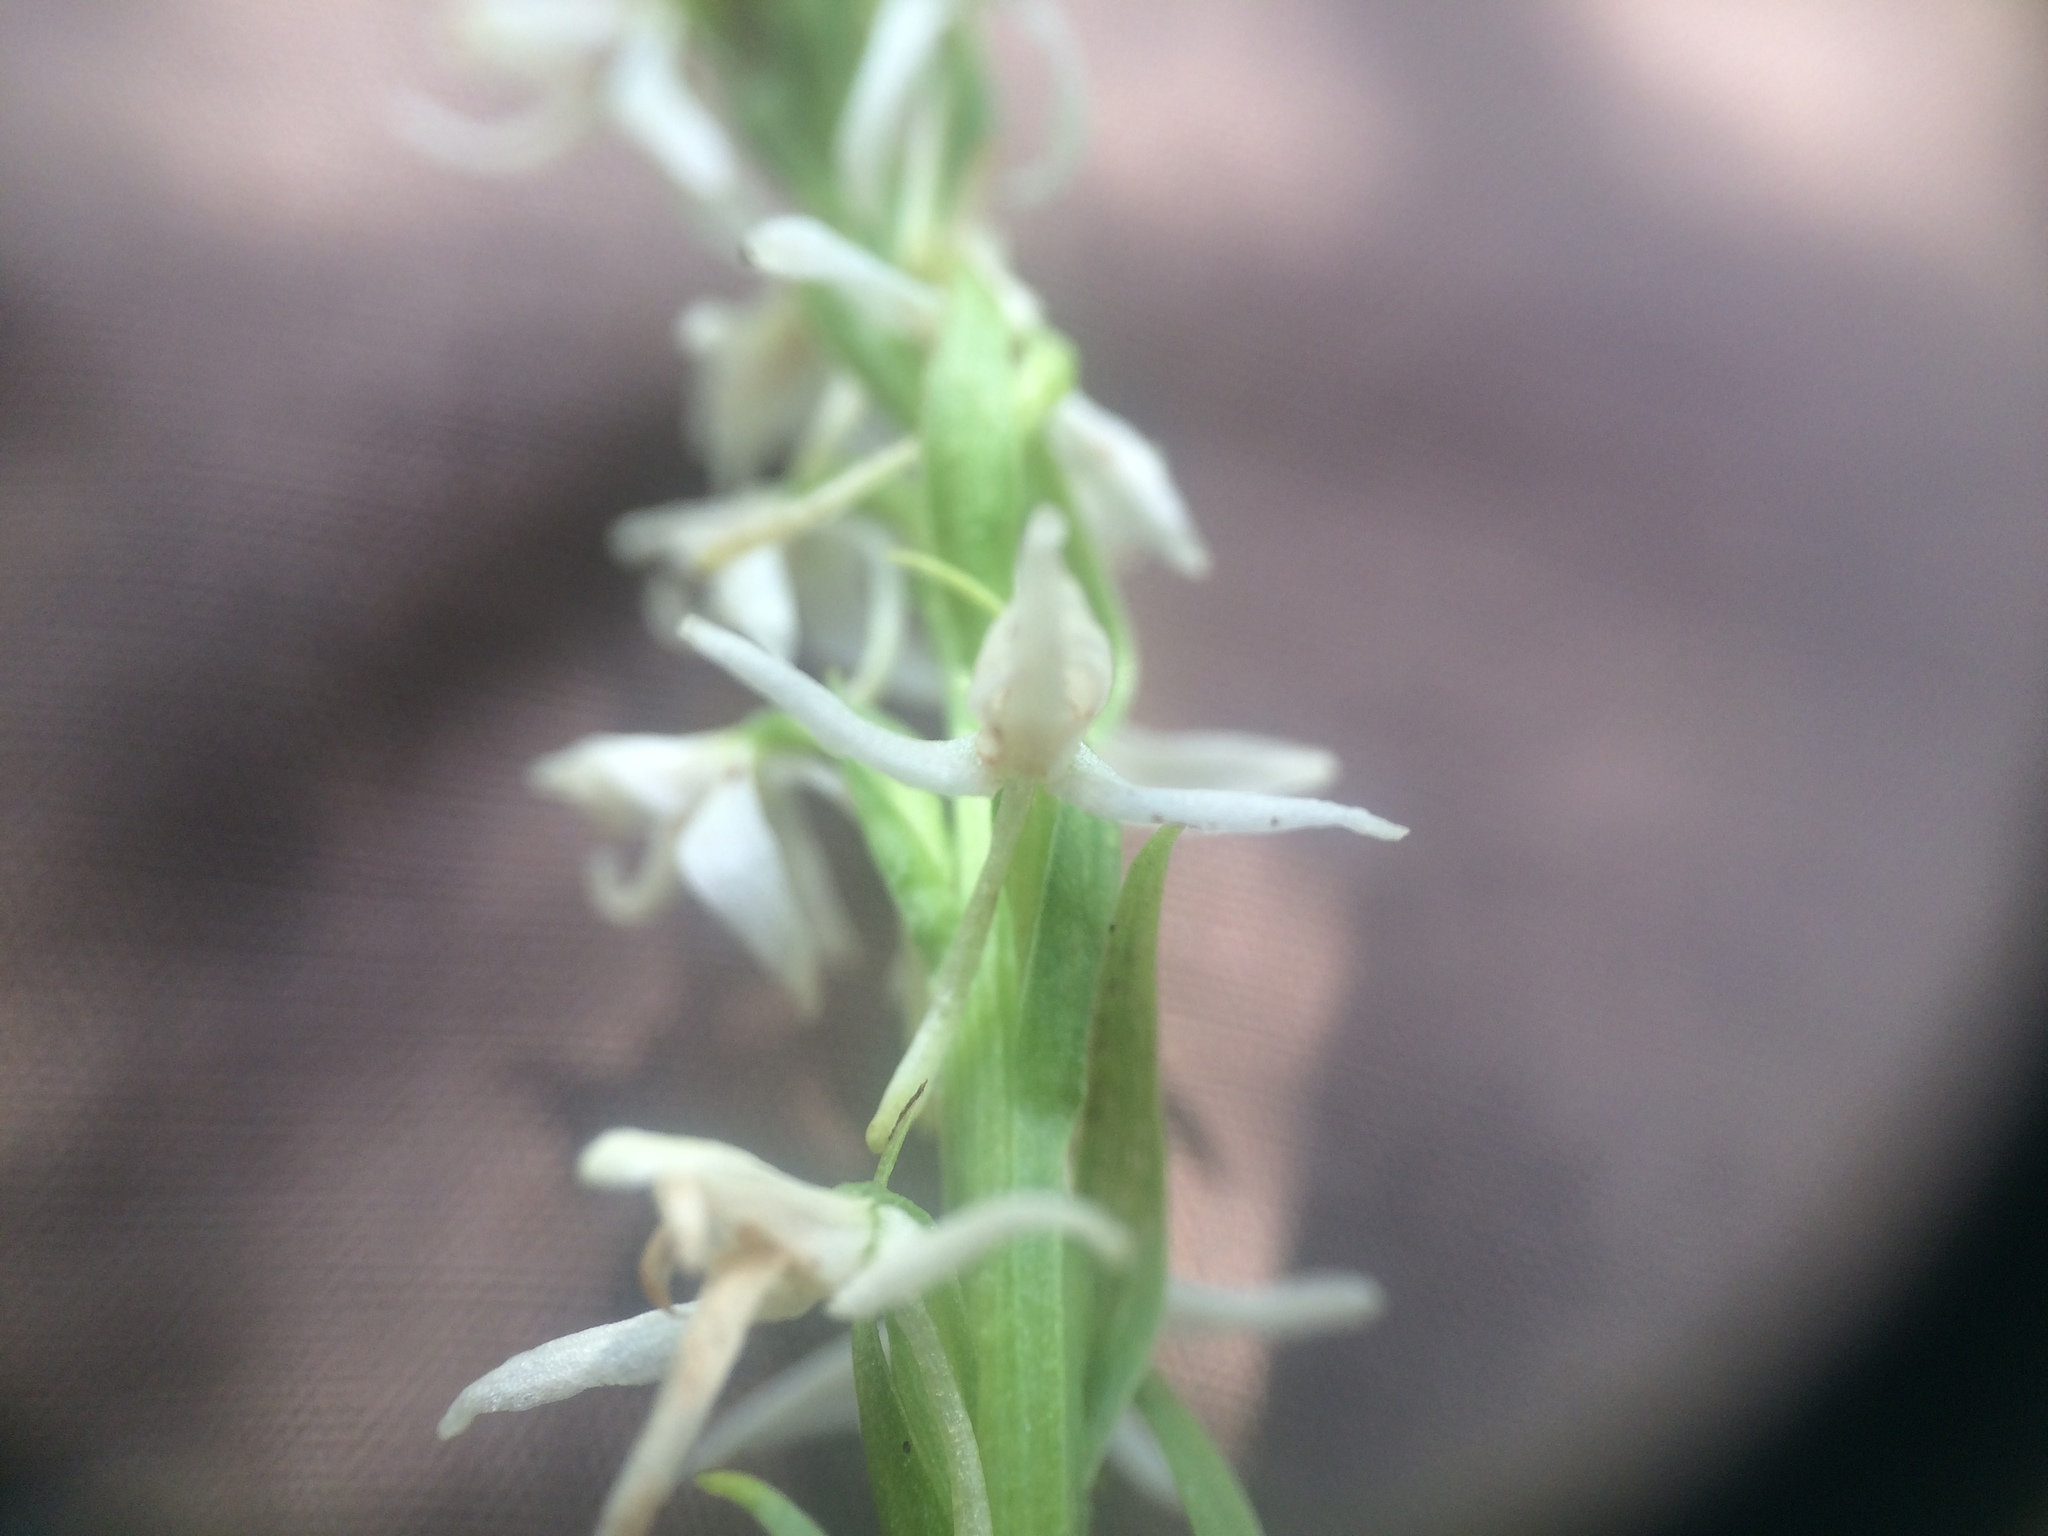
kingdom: Plantae
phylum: Tracheophyta
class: Liliopsida
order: Asparagales
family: Orchidaceae
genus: Platanthera
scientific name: Platanthera dilatata
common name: Bog candles
